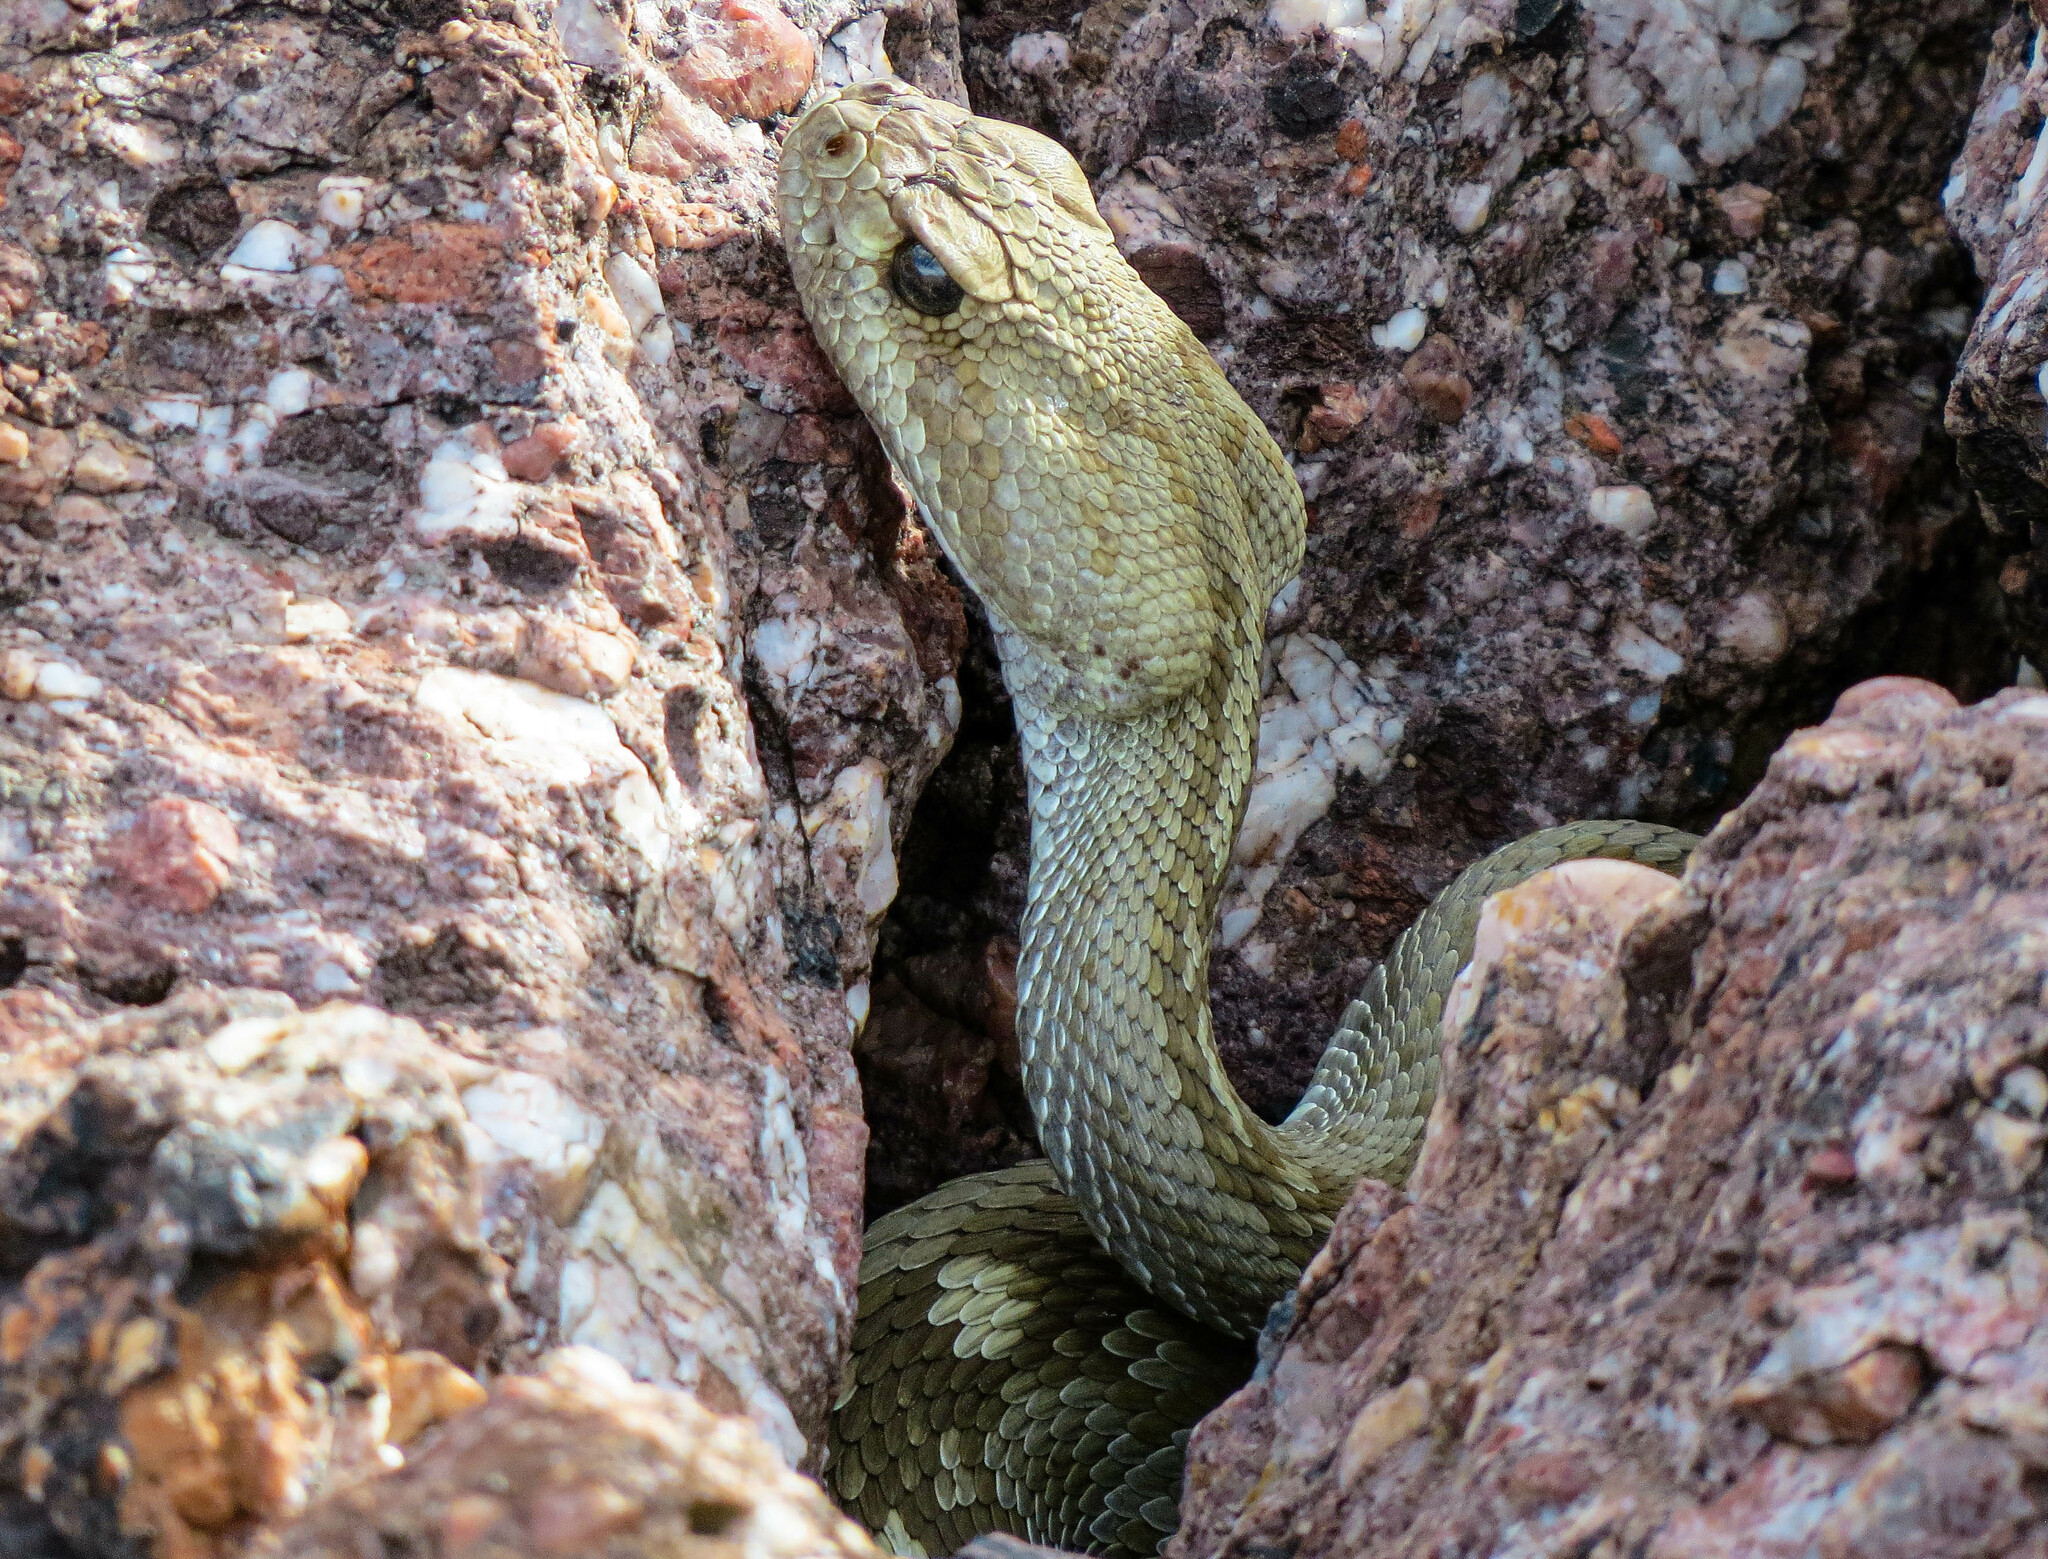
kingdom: Animalia
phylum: Chordata
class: Squamata
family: Viperidae
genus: Crotalus
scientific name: Crotalus ornatus
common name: Black-tailed rattlesnake
